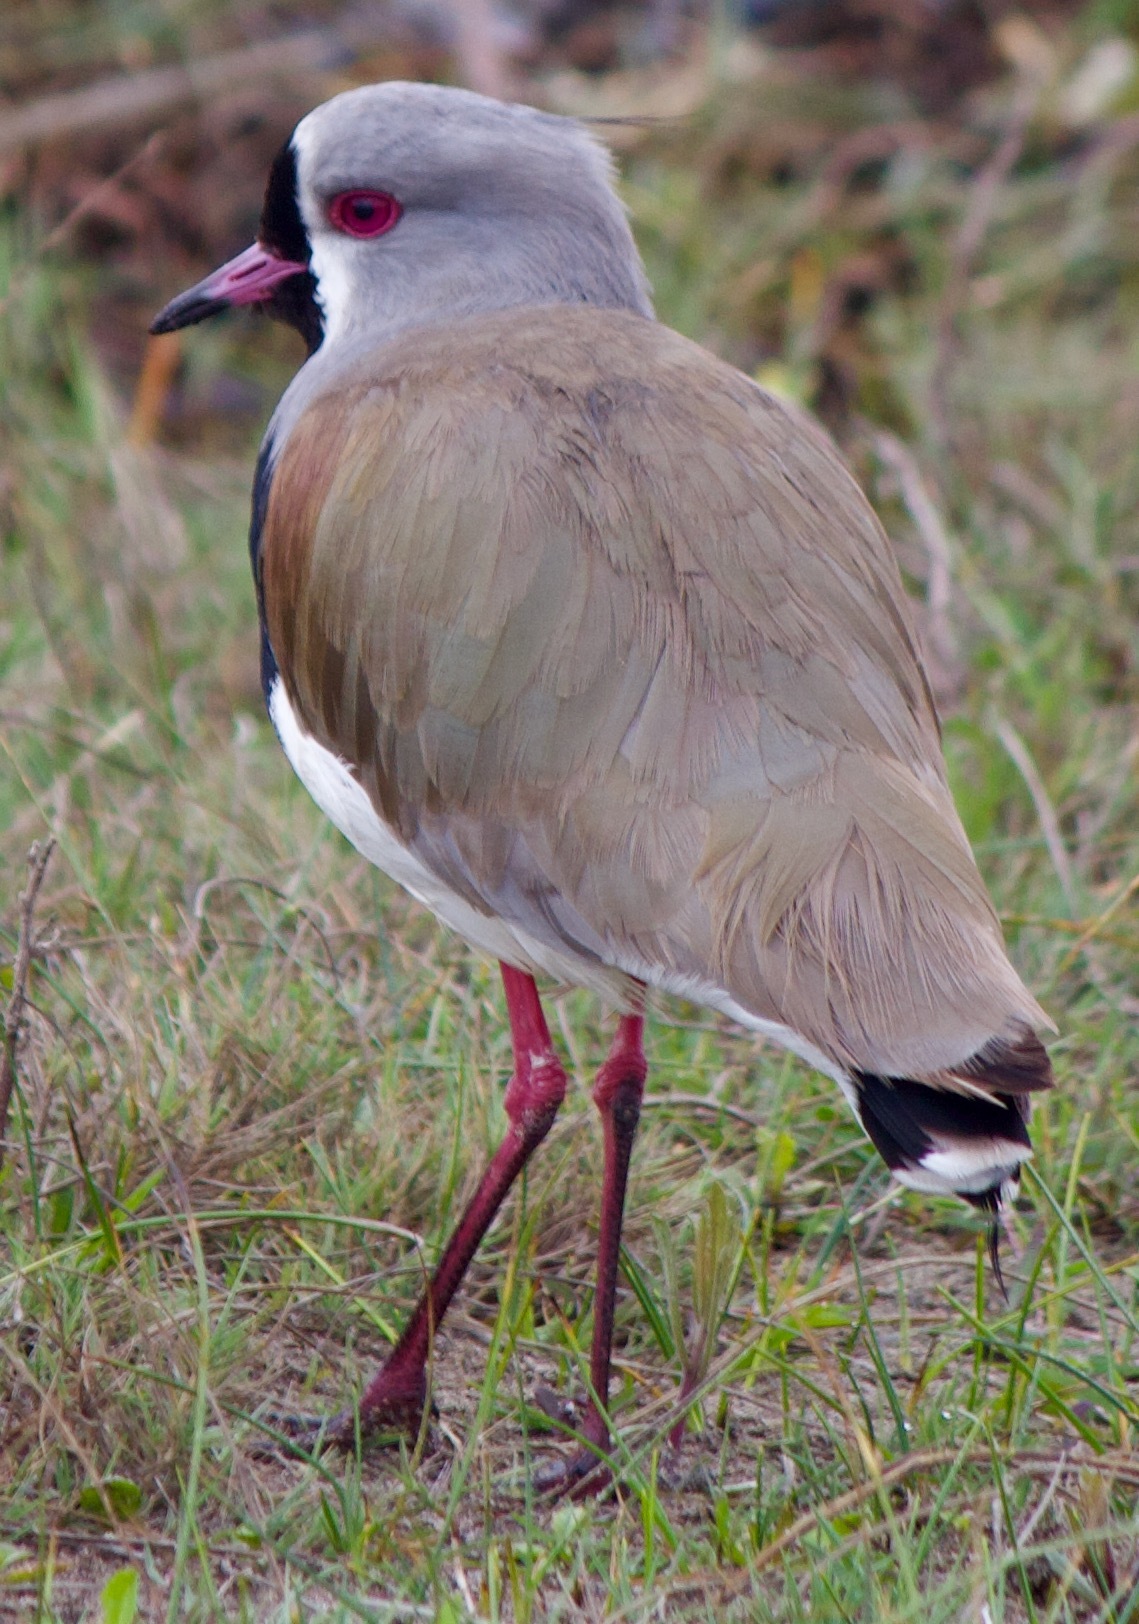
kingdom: Animalia
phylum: Chordata
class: Aves
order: Charadriiformes
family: Charadriidae
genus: Vanellus
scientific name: Vanellus chilensis
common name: Southern lapwing
